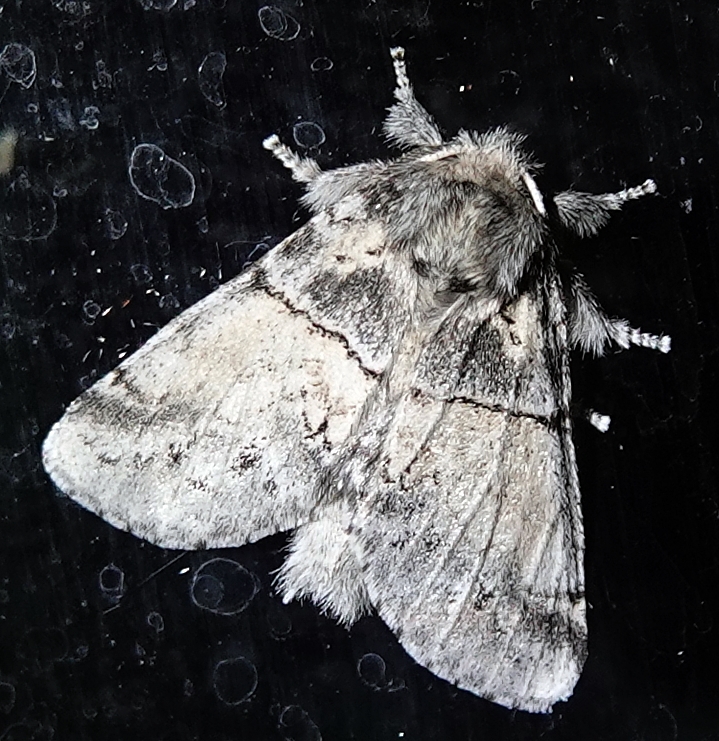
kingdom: Animalia
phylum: Arthropoda
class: Insecta
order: Lepidoptera
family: Notodontidae
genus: Gluphisia
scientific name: Gluphisia septentrionis
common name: Common gluphisia
